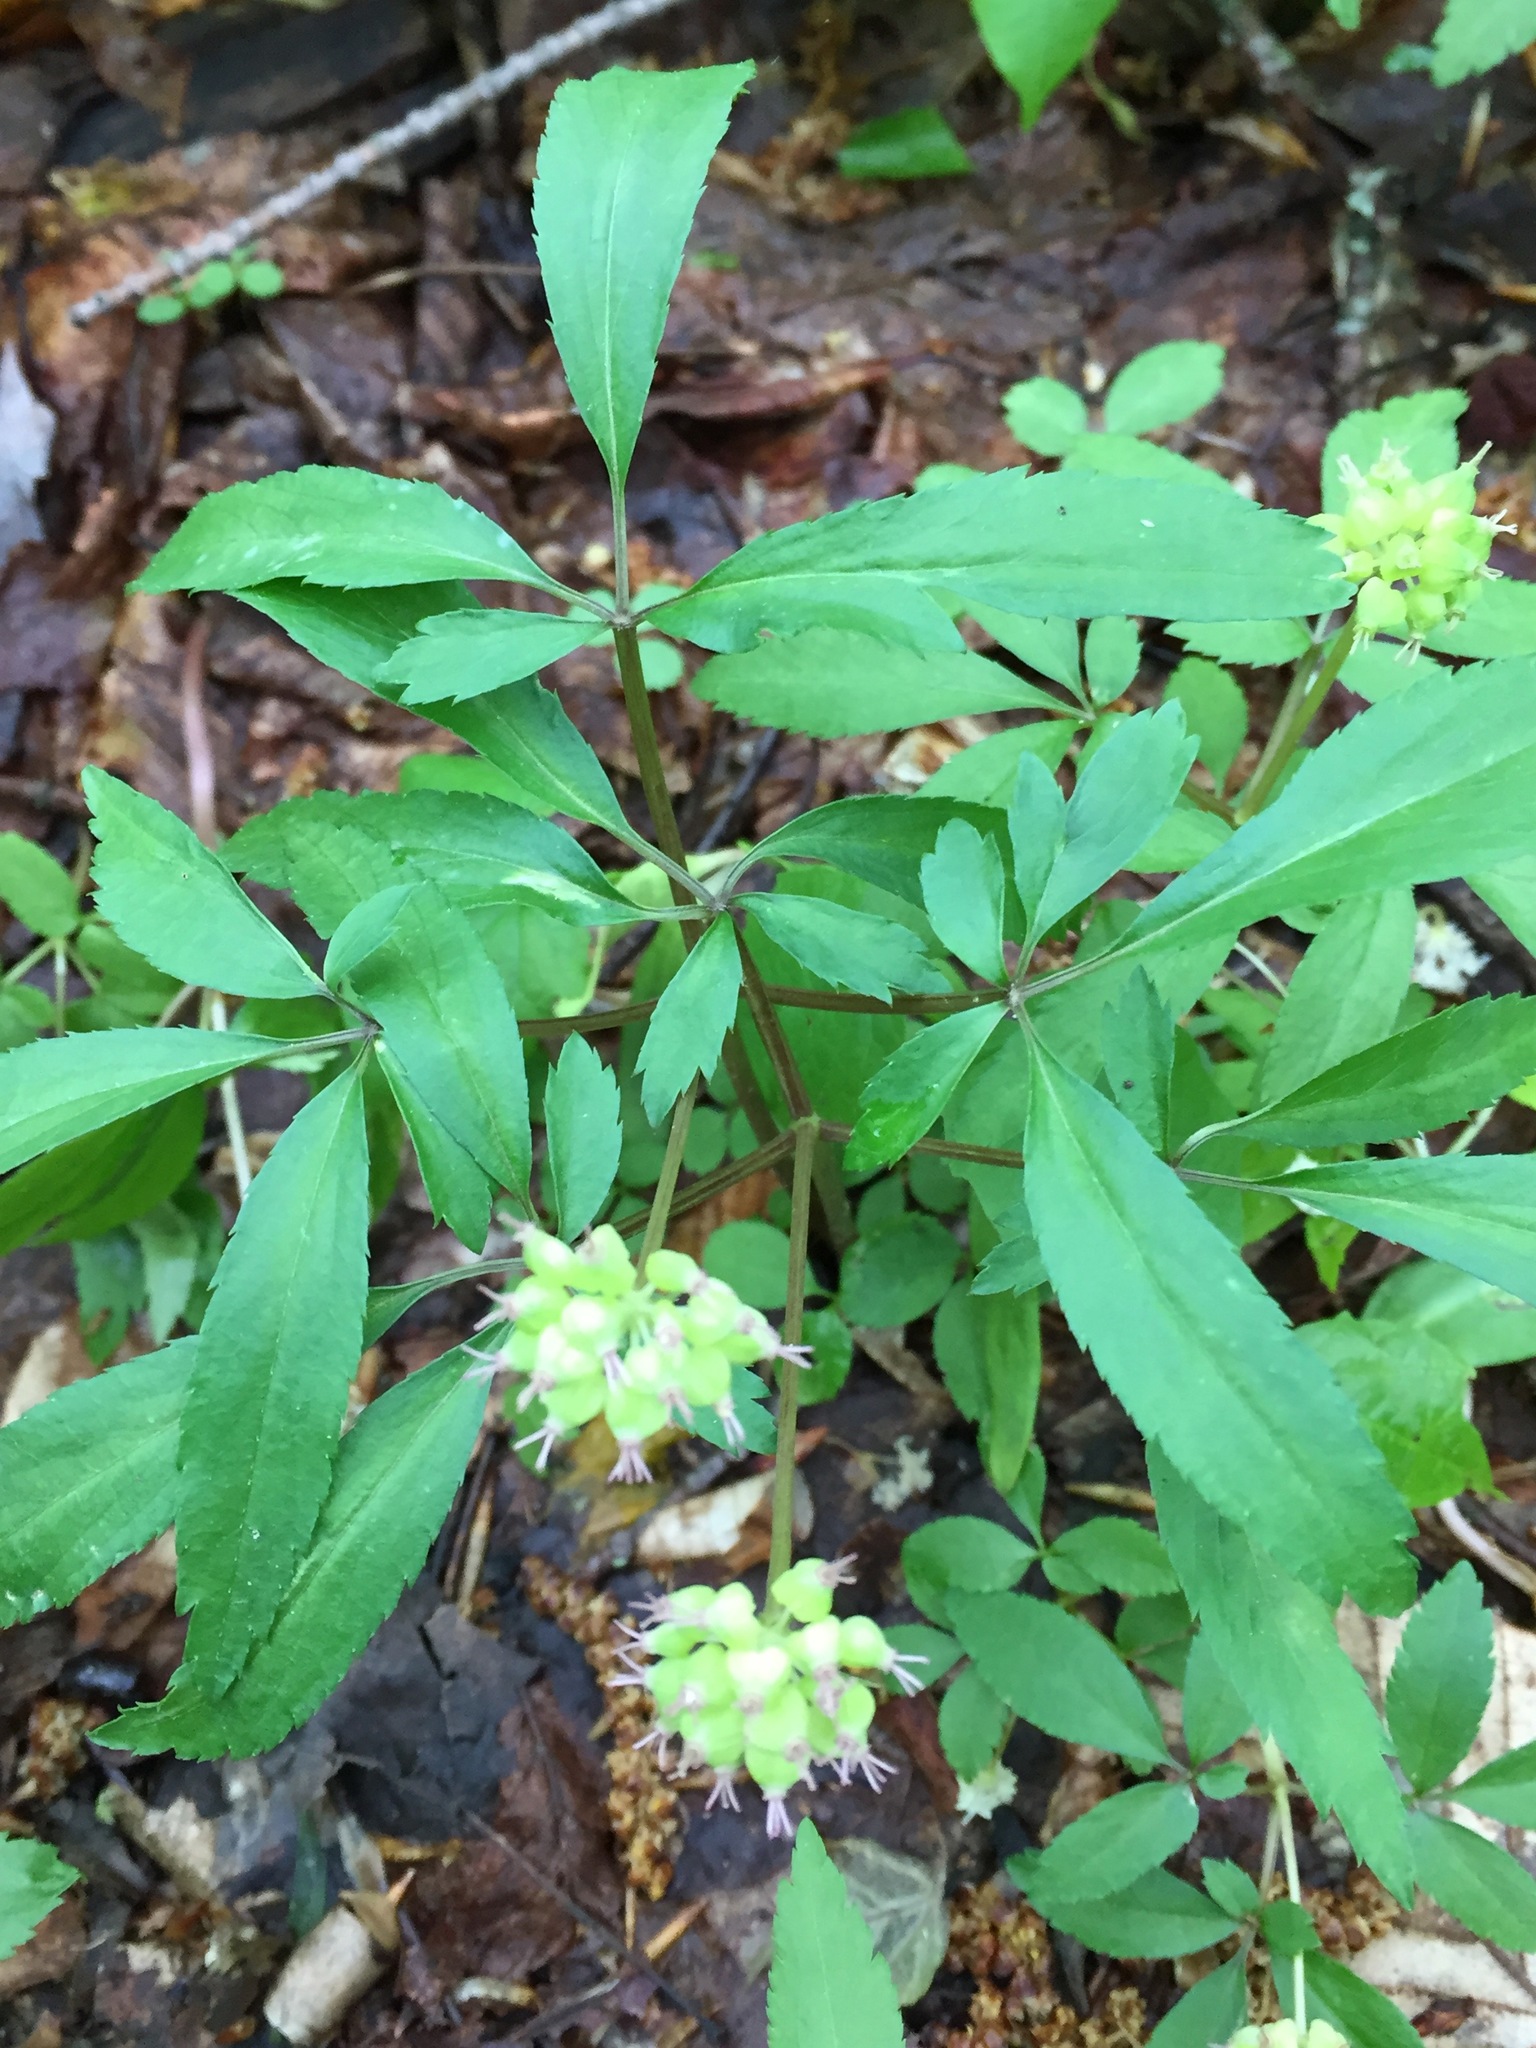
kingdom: Plantae
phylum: Tracheophyta
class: Magnoliopsida
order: Apiales
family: Araliaceae
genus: Panax
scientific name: Panax trifolius
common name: Dwarf ginseng
